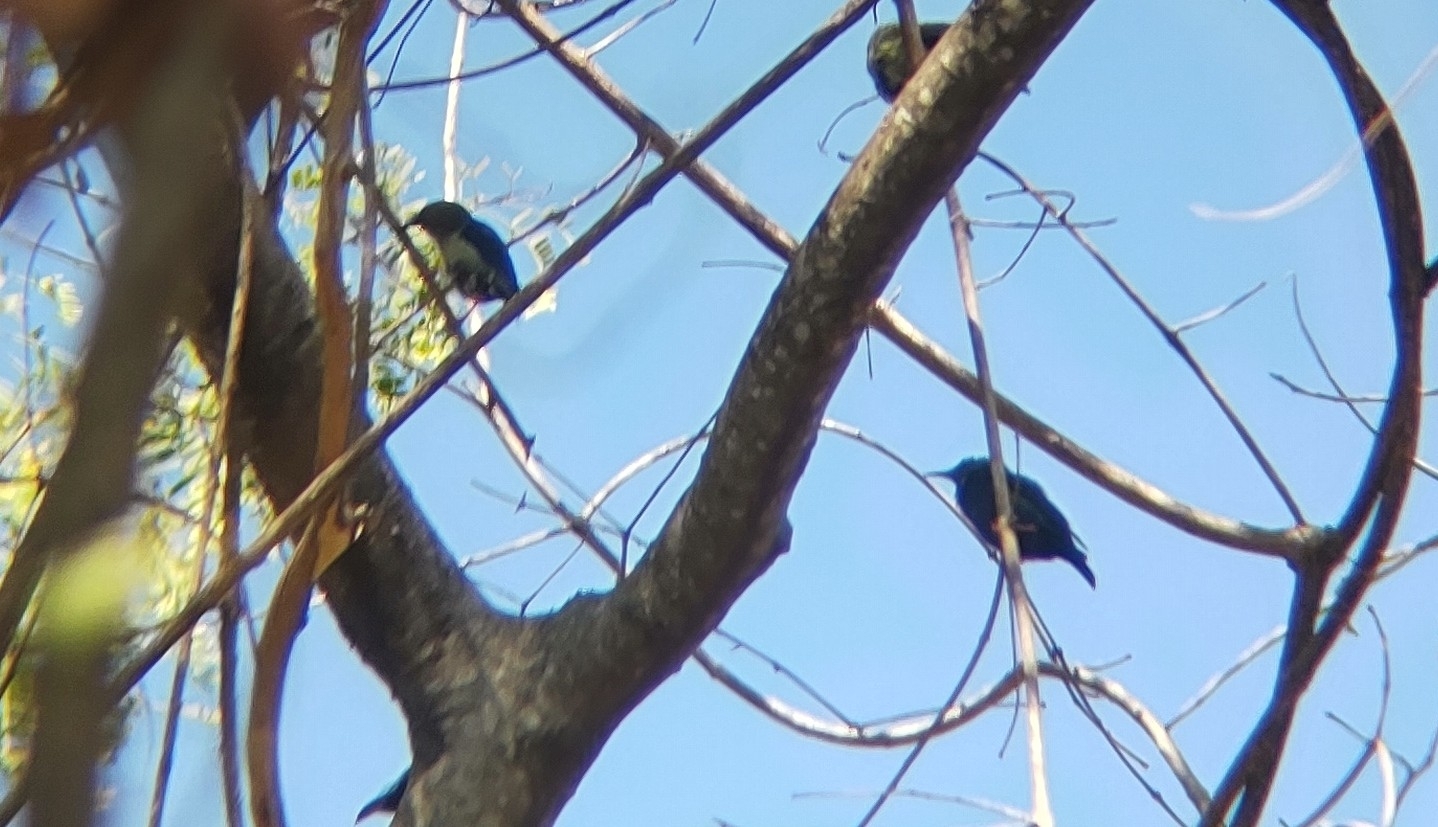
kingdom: Animalia
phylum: Chordata
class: Aves
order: Passeriformes
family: Thraupidae
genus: Cyanerpes
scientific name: Cyanerpes cyaneus
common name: Red-legged honeycreeper
